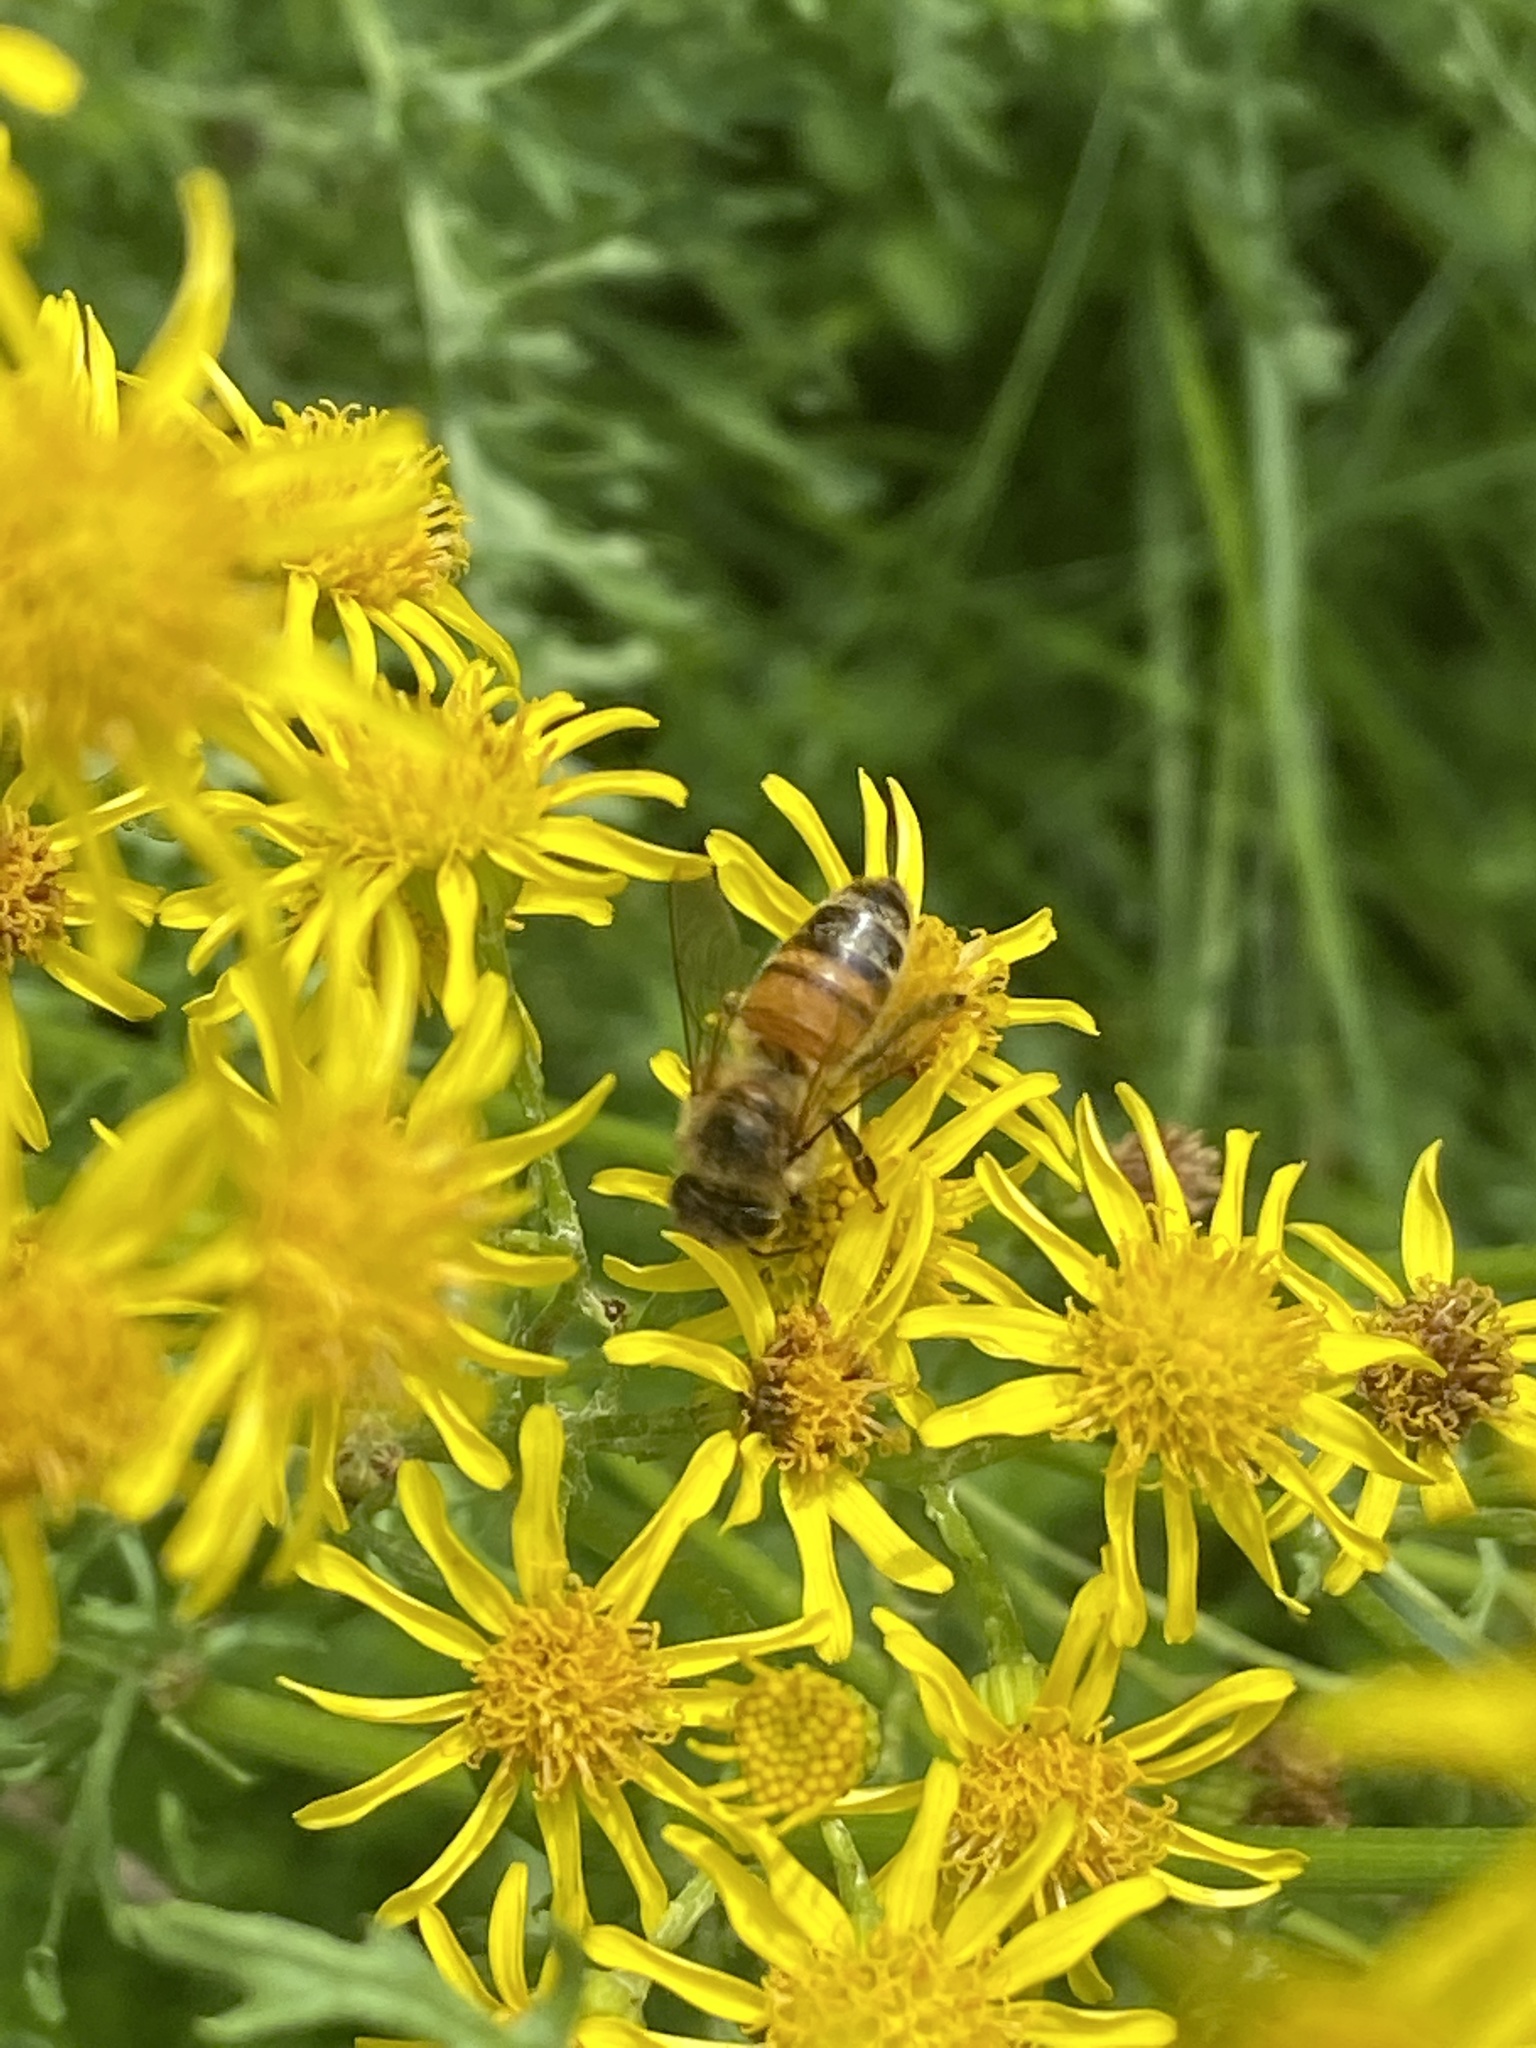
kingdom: Animalia
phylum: Arthropoda
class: Insecta
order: Hymenoptera
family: Apidae
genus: Apis
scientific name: Apis mellifera
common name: Honey bee
